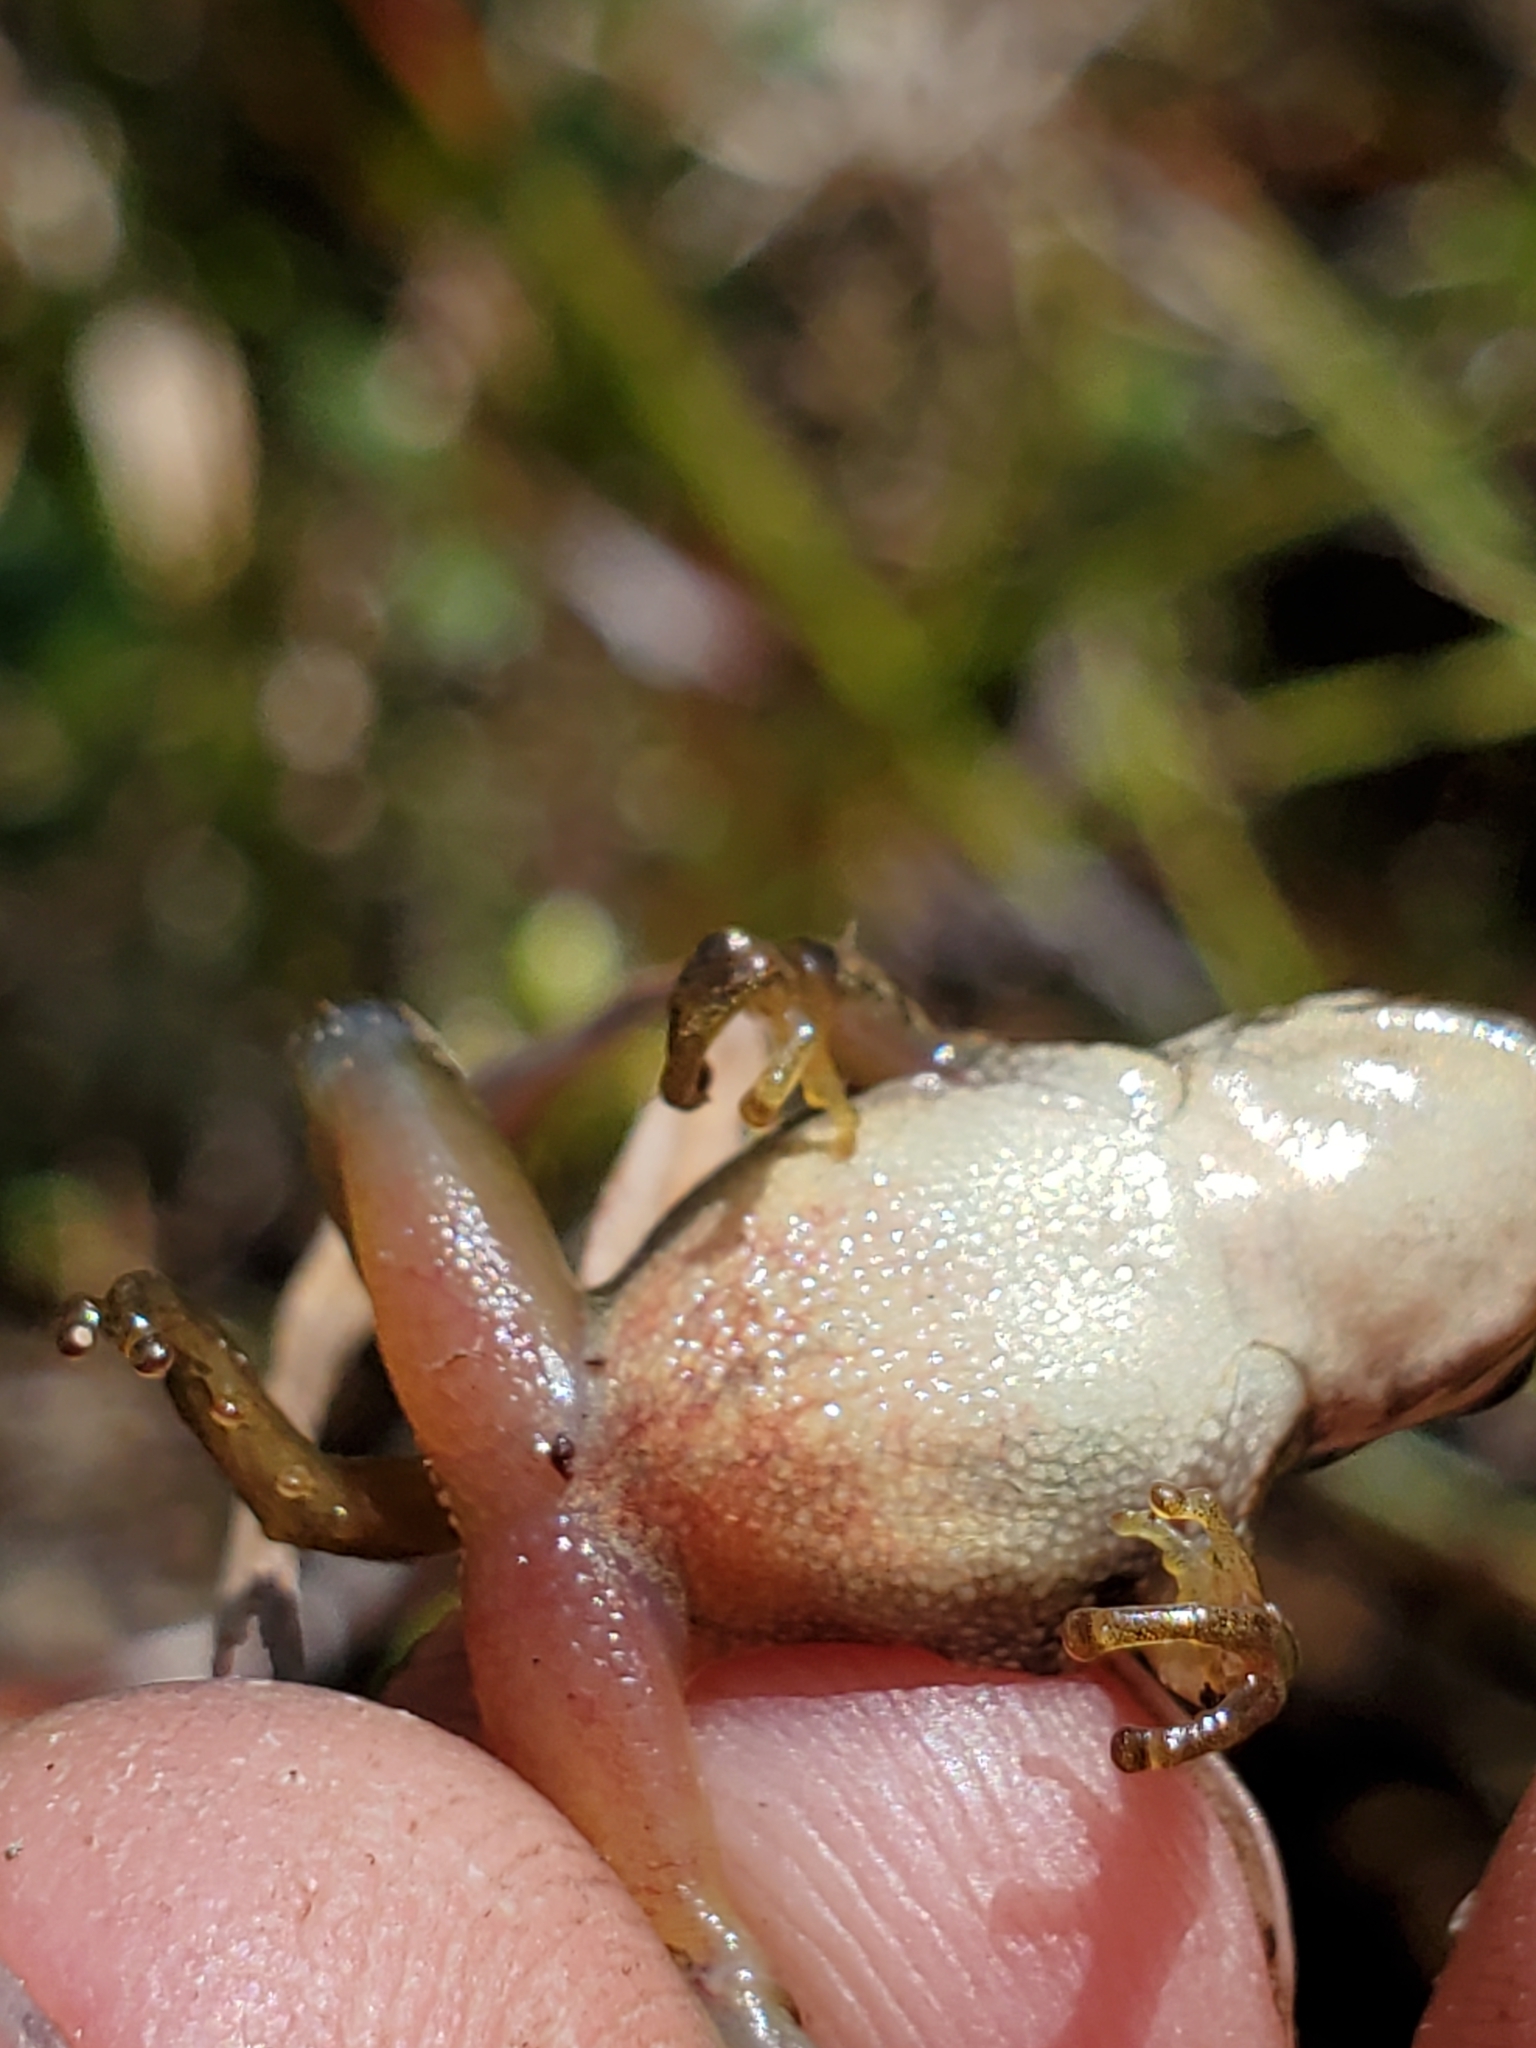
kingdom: Animalia
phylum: Chordata
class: Amphibia
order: Anura
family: Hylidae
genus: Pseudacris
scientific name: Pseudacris regilla
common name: Pacific chorus frog
